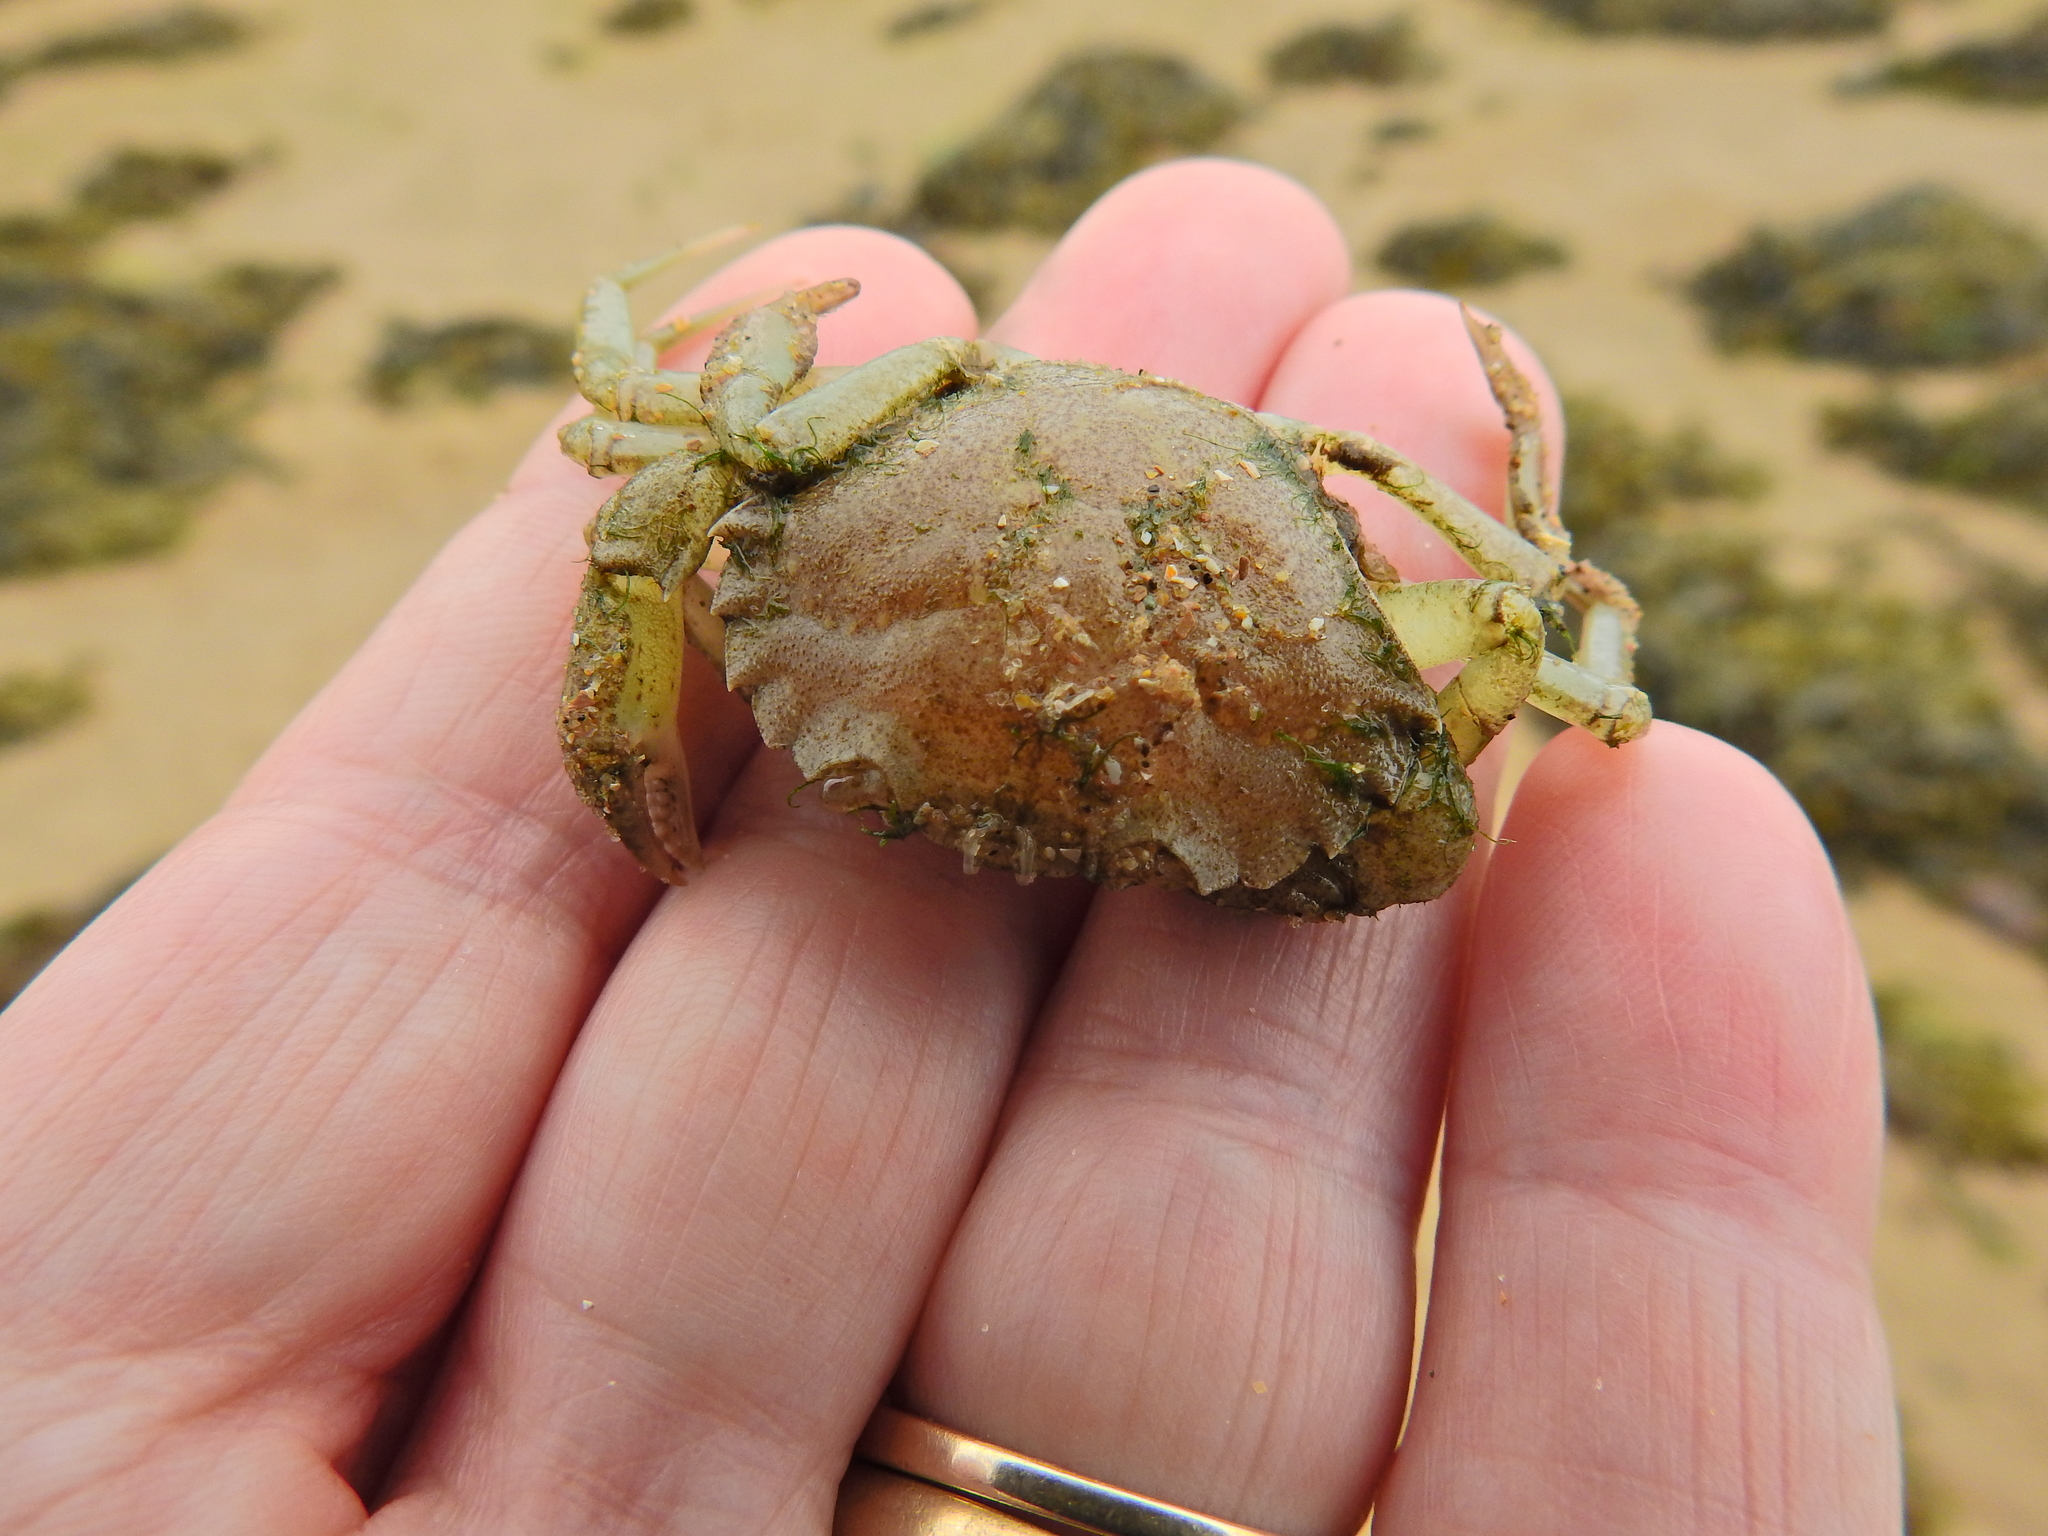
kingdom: Animalia
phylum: Arthropoda
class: Malacostraca
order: Decapoda
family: Carcinidae
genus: Carcinus
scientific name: Carcinus maenas
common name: European green crab
